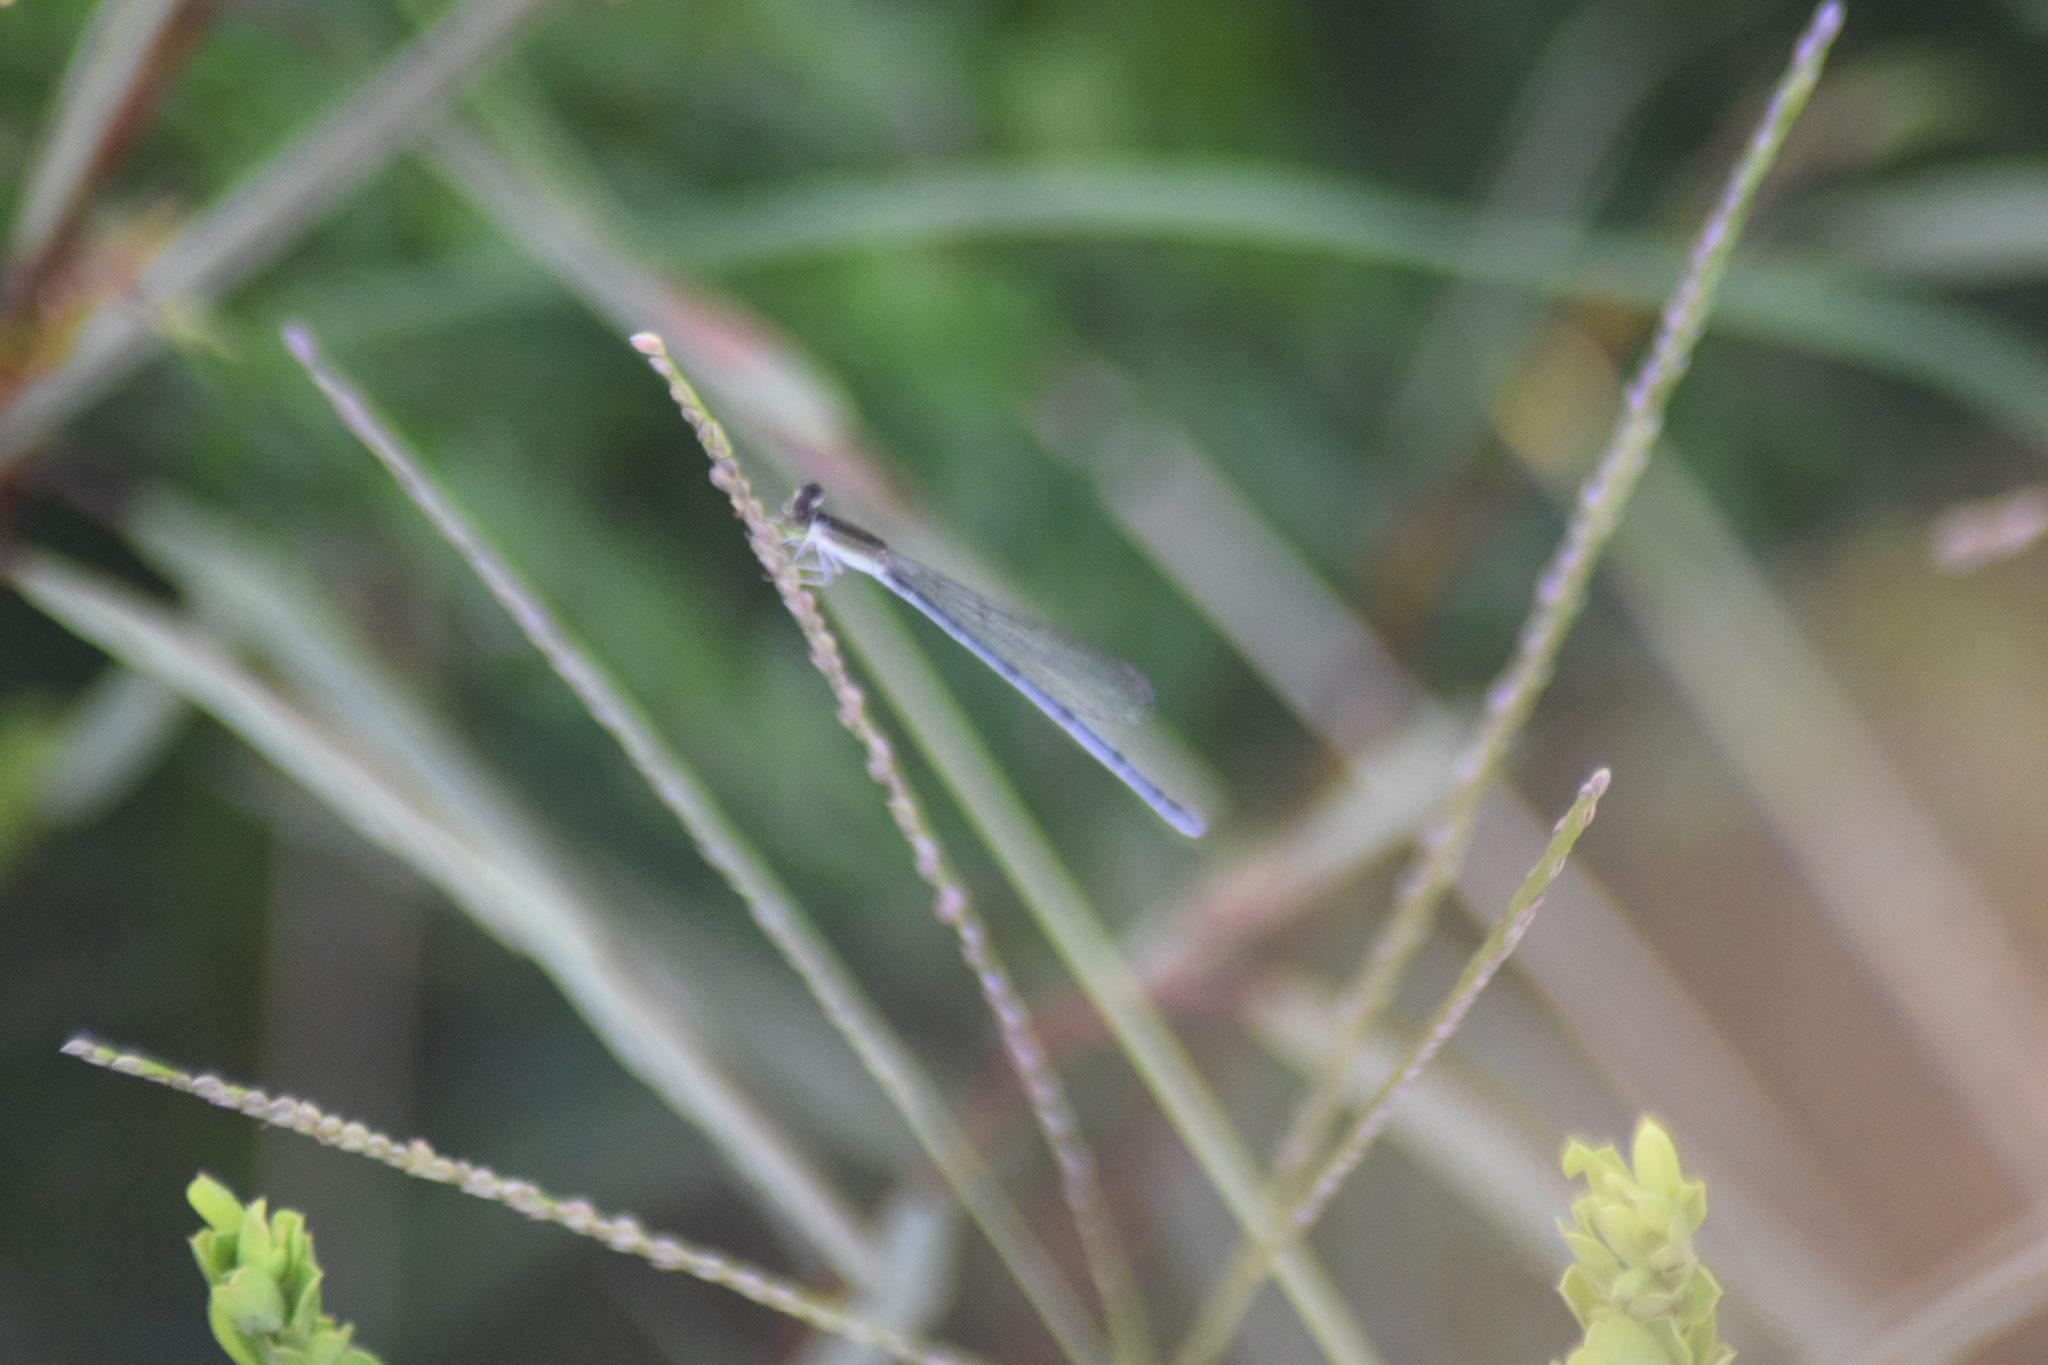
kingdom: Animalia
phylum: Arthropoda
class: Insecta
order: Odonata
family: Coenagrionidae
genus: Ischnura
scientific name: Ischnura hastata
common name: Citrine forktail
